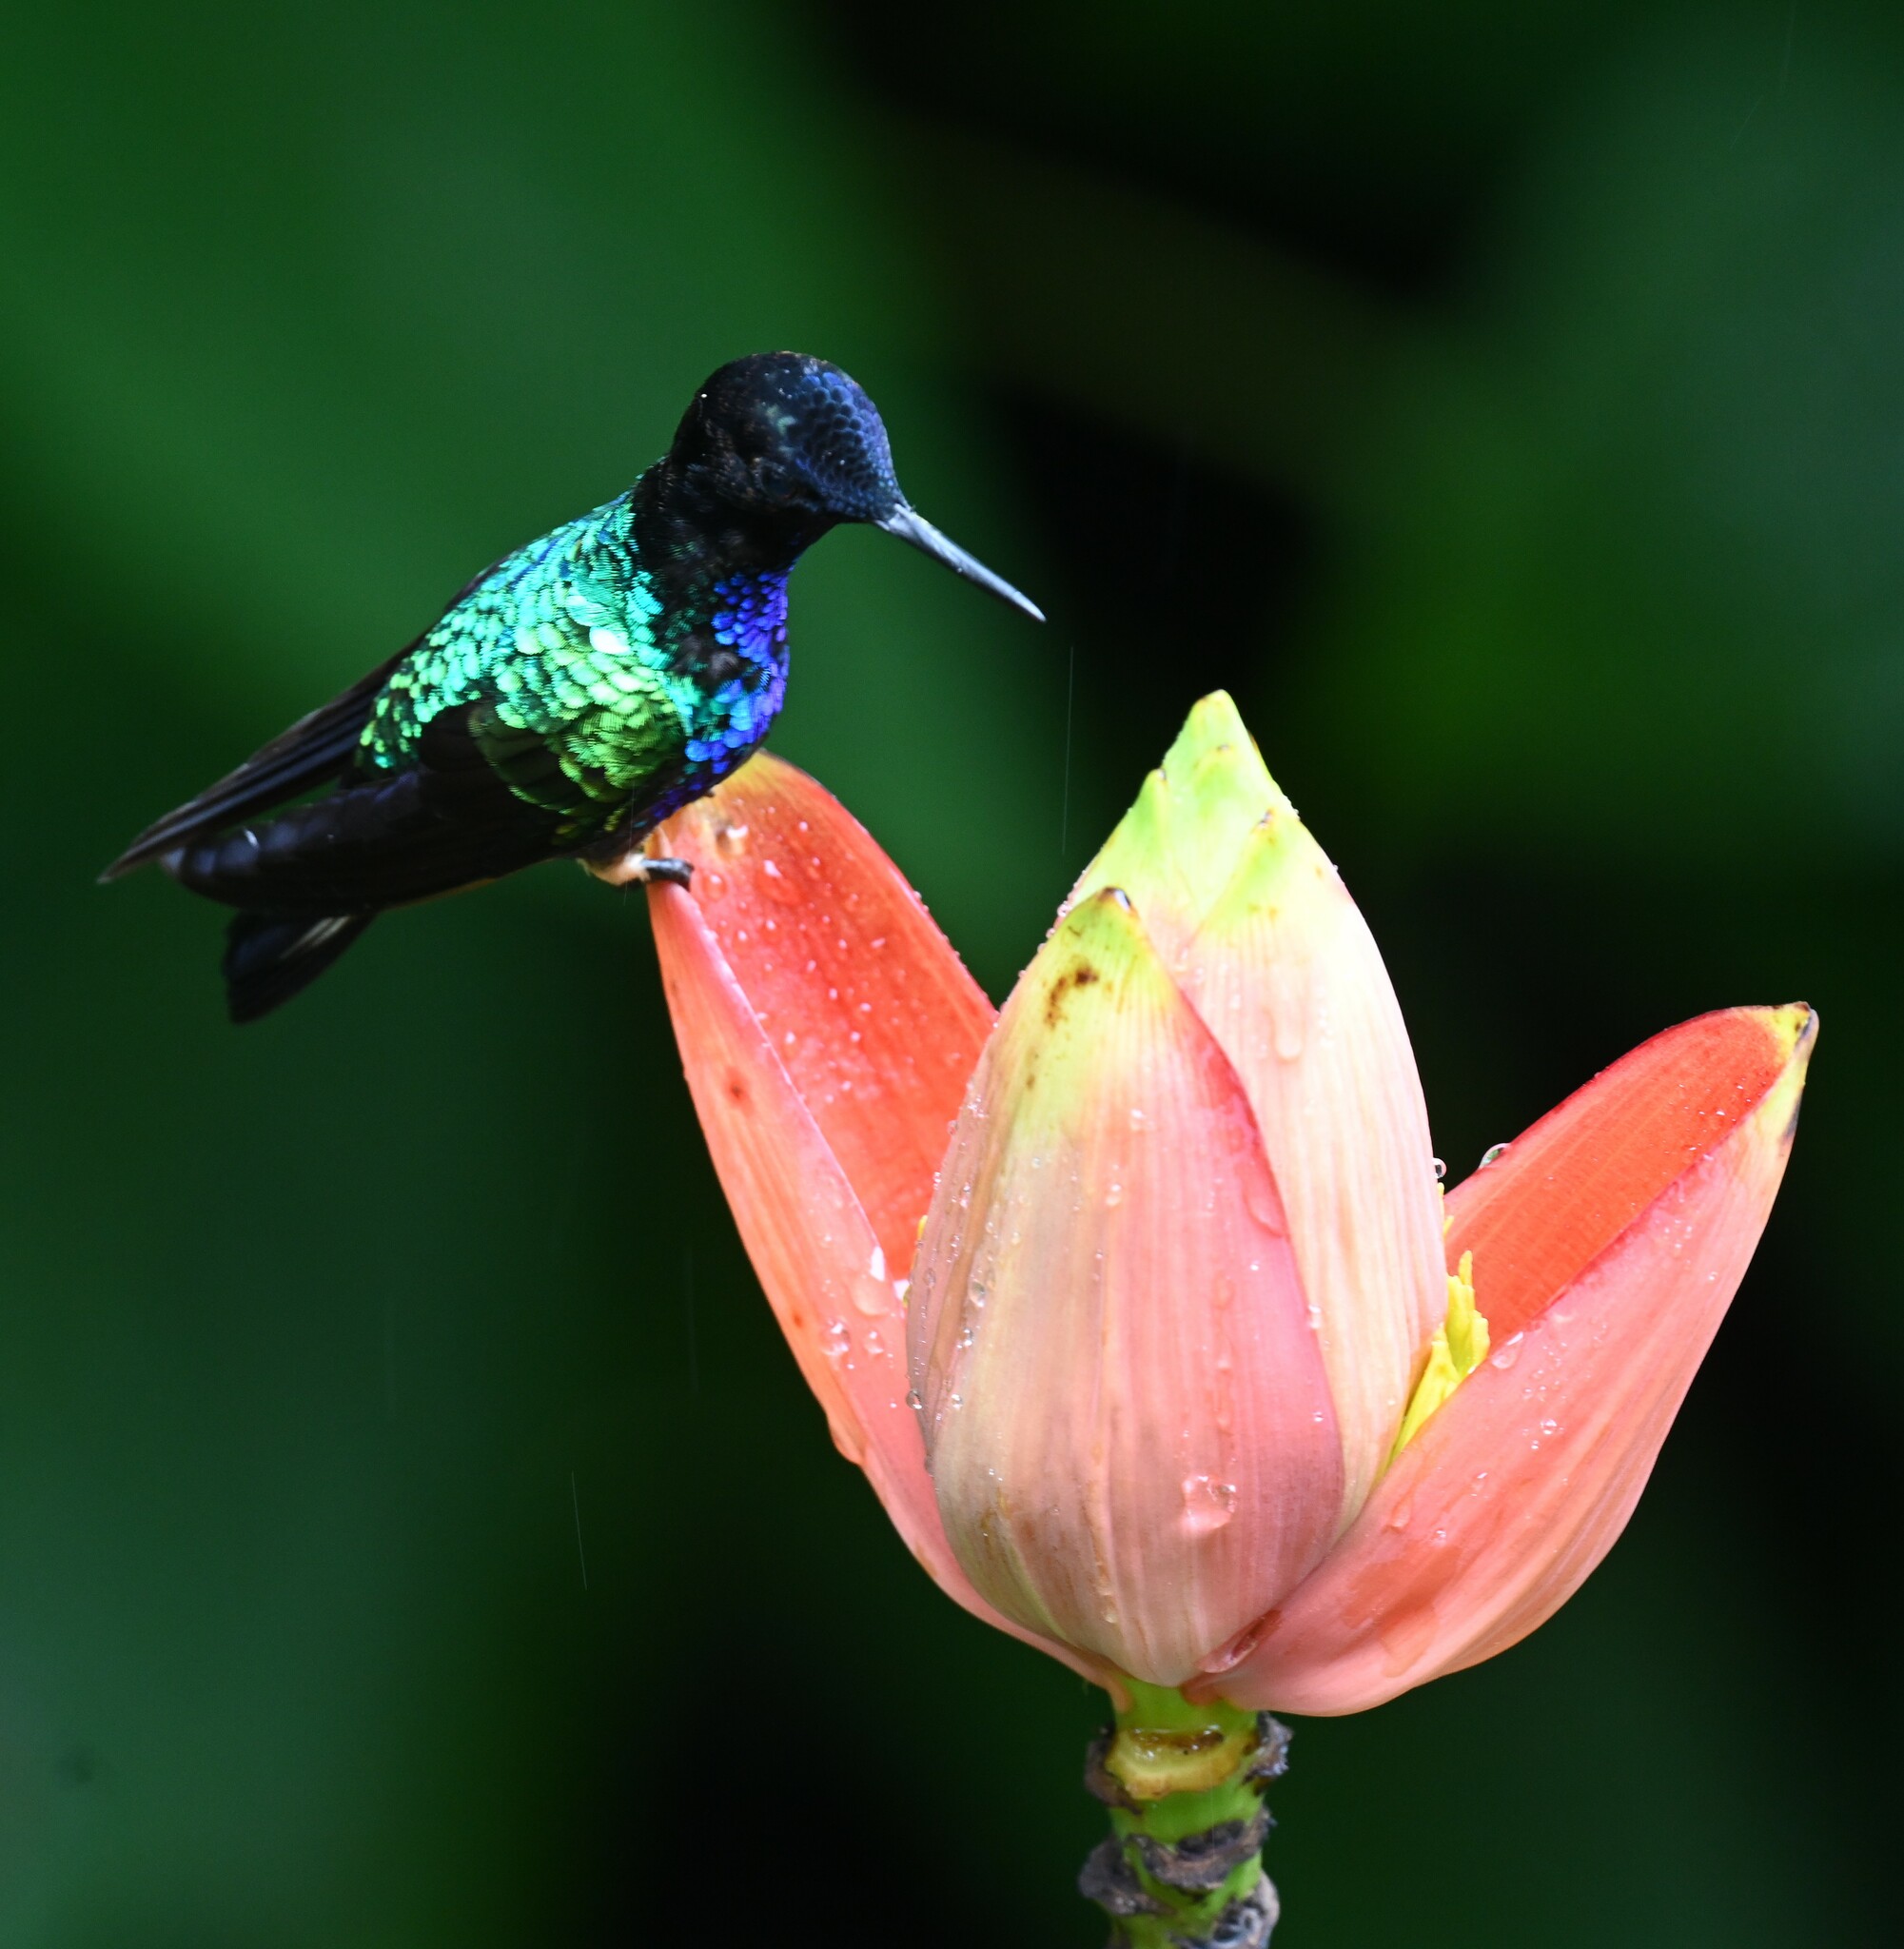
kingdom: Animalia
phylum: Chordata
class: Aves
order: Apodiformes
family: Trochilidae
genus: Boissonneaua
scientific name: Boissonneaua jardini
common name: Velvet-purple coronet
